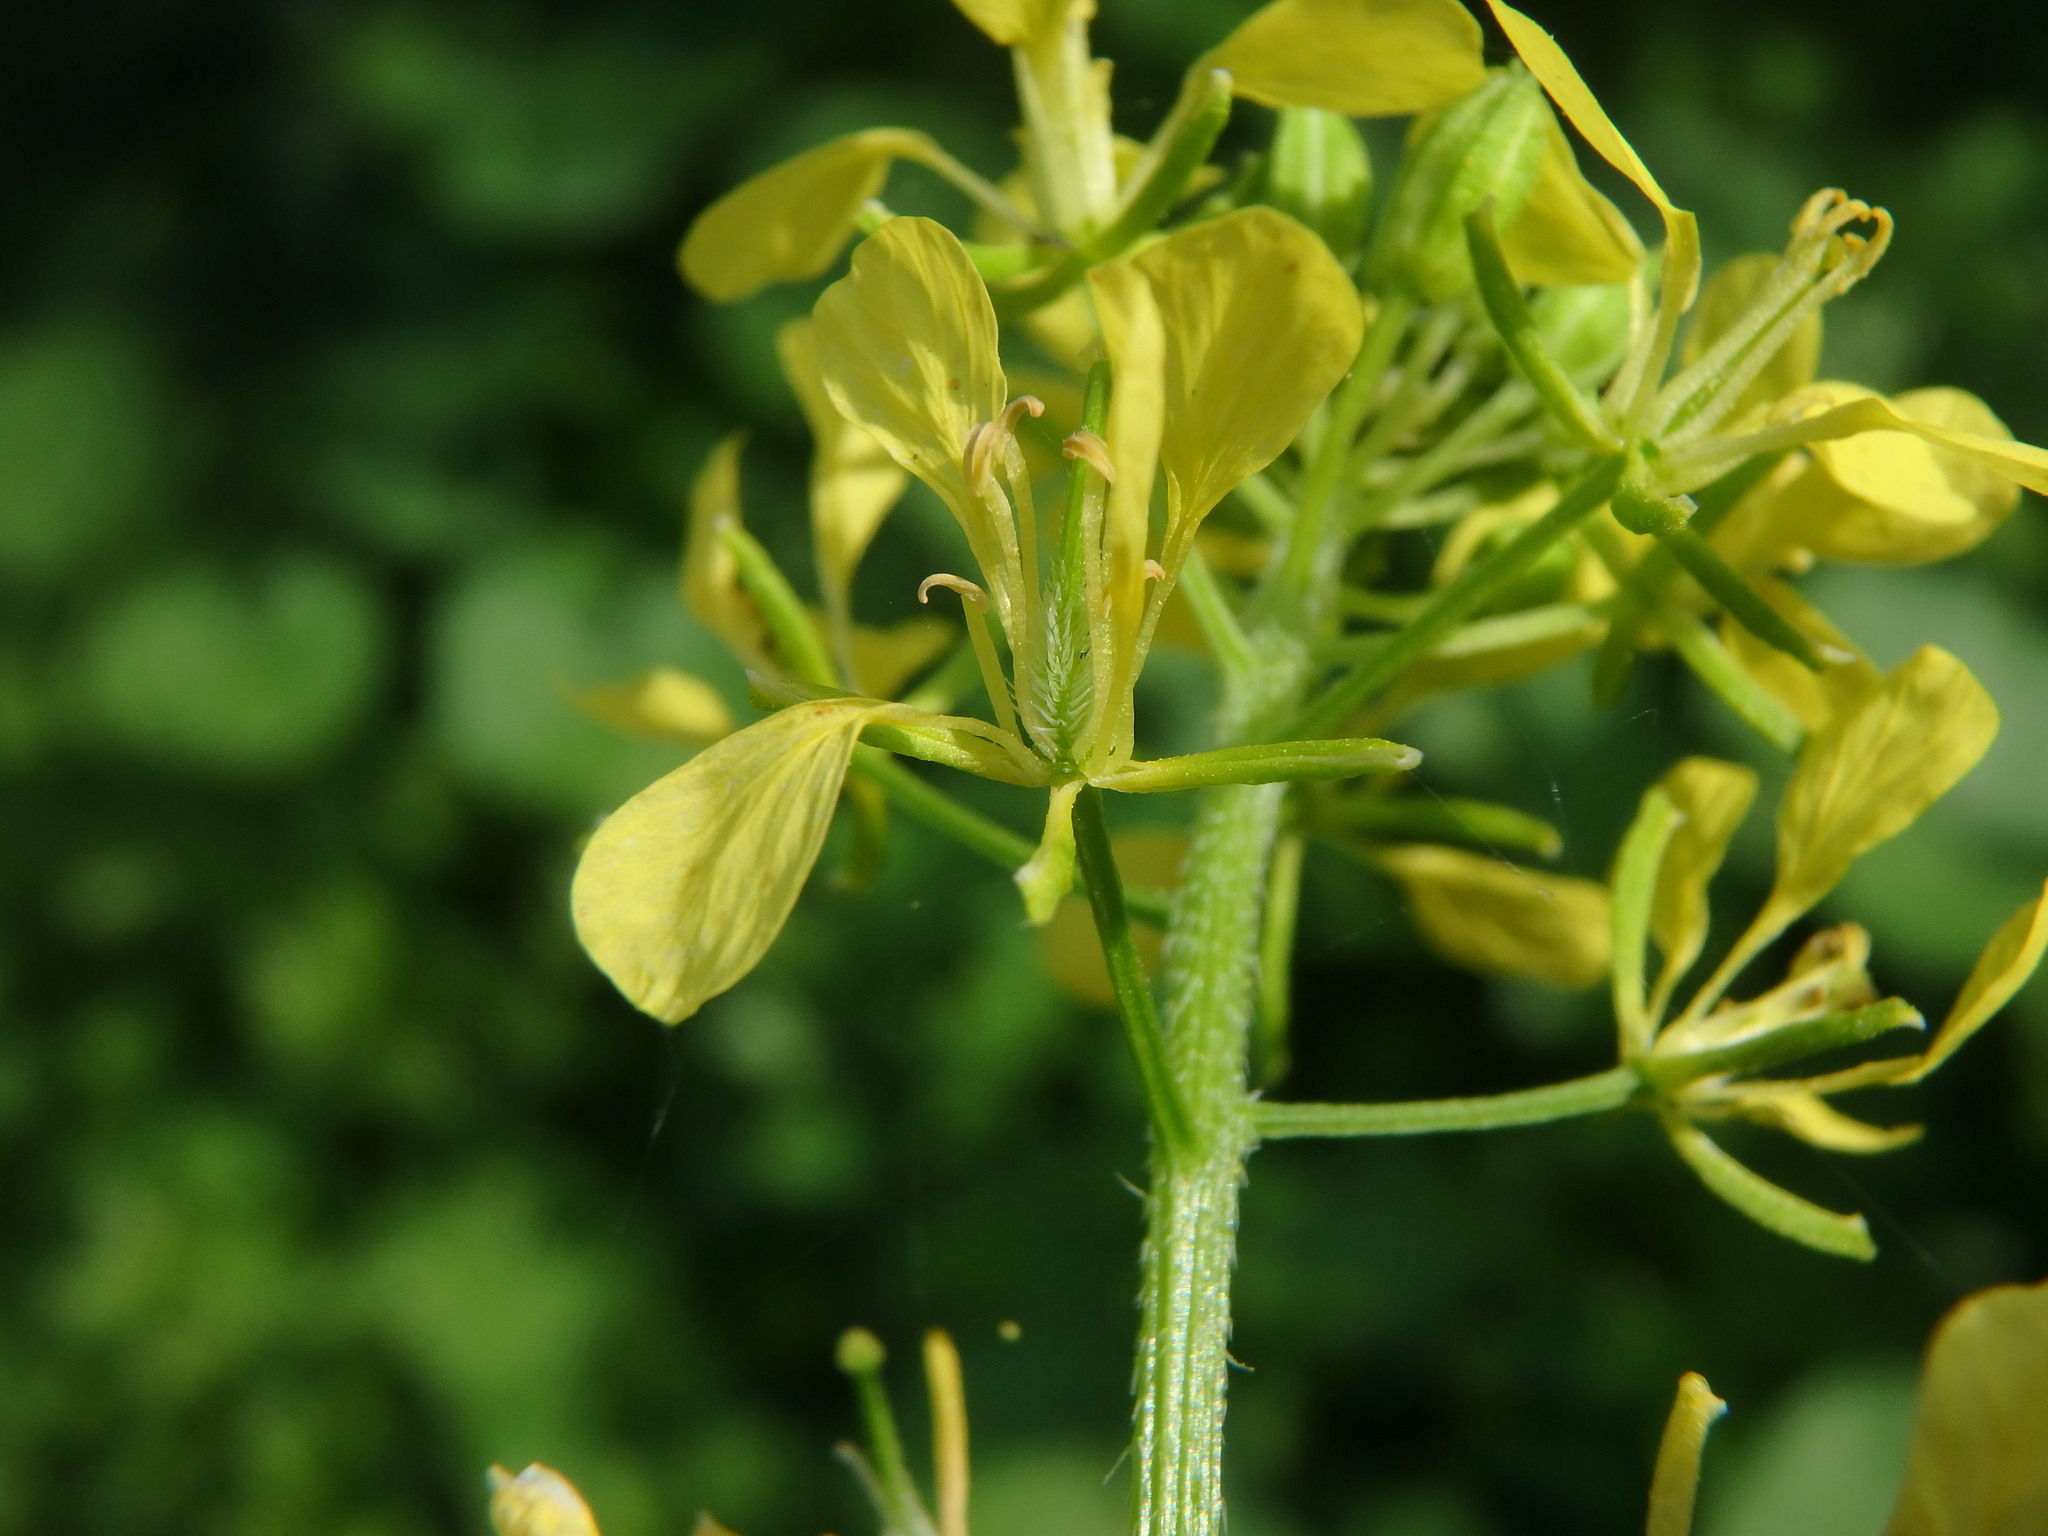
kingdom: Plantae
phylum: Tracheophyta
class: Magnoliopsida
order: Brassicales
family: Brassicaceae
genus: Sinapis
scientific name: Sinapis alba
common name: White mustard
